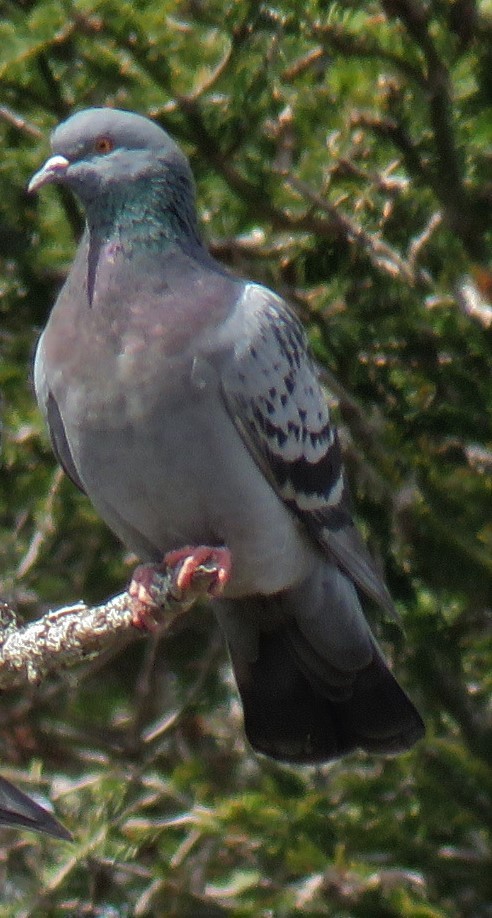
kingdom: Animalia
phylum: Chordata
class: Aves
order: Columbiformes
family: Columbidae
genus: Columba
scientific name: Columba livia
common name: Rock pigeon
